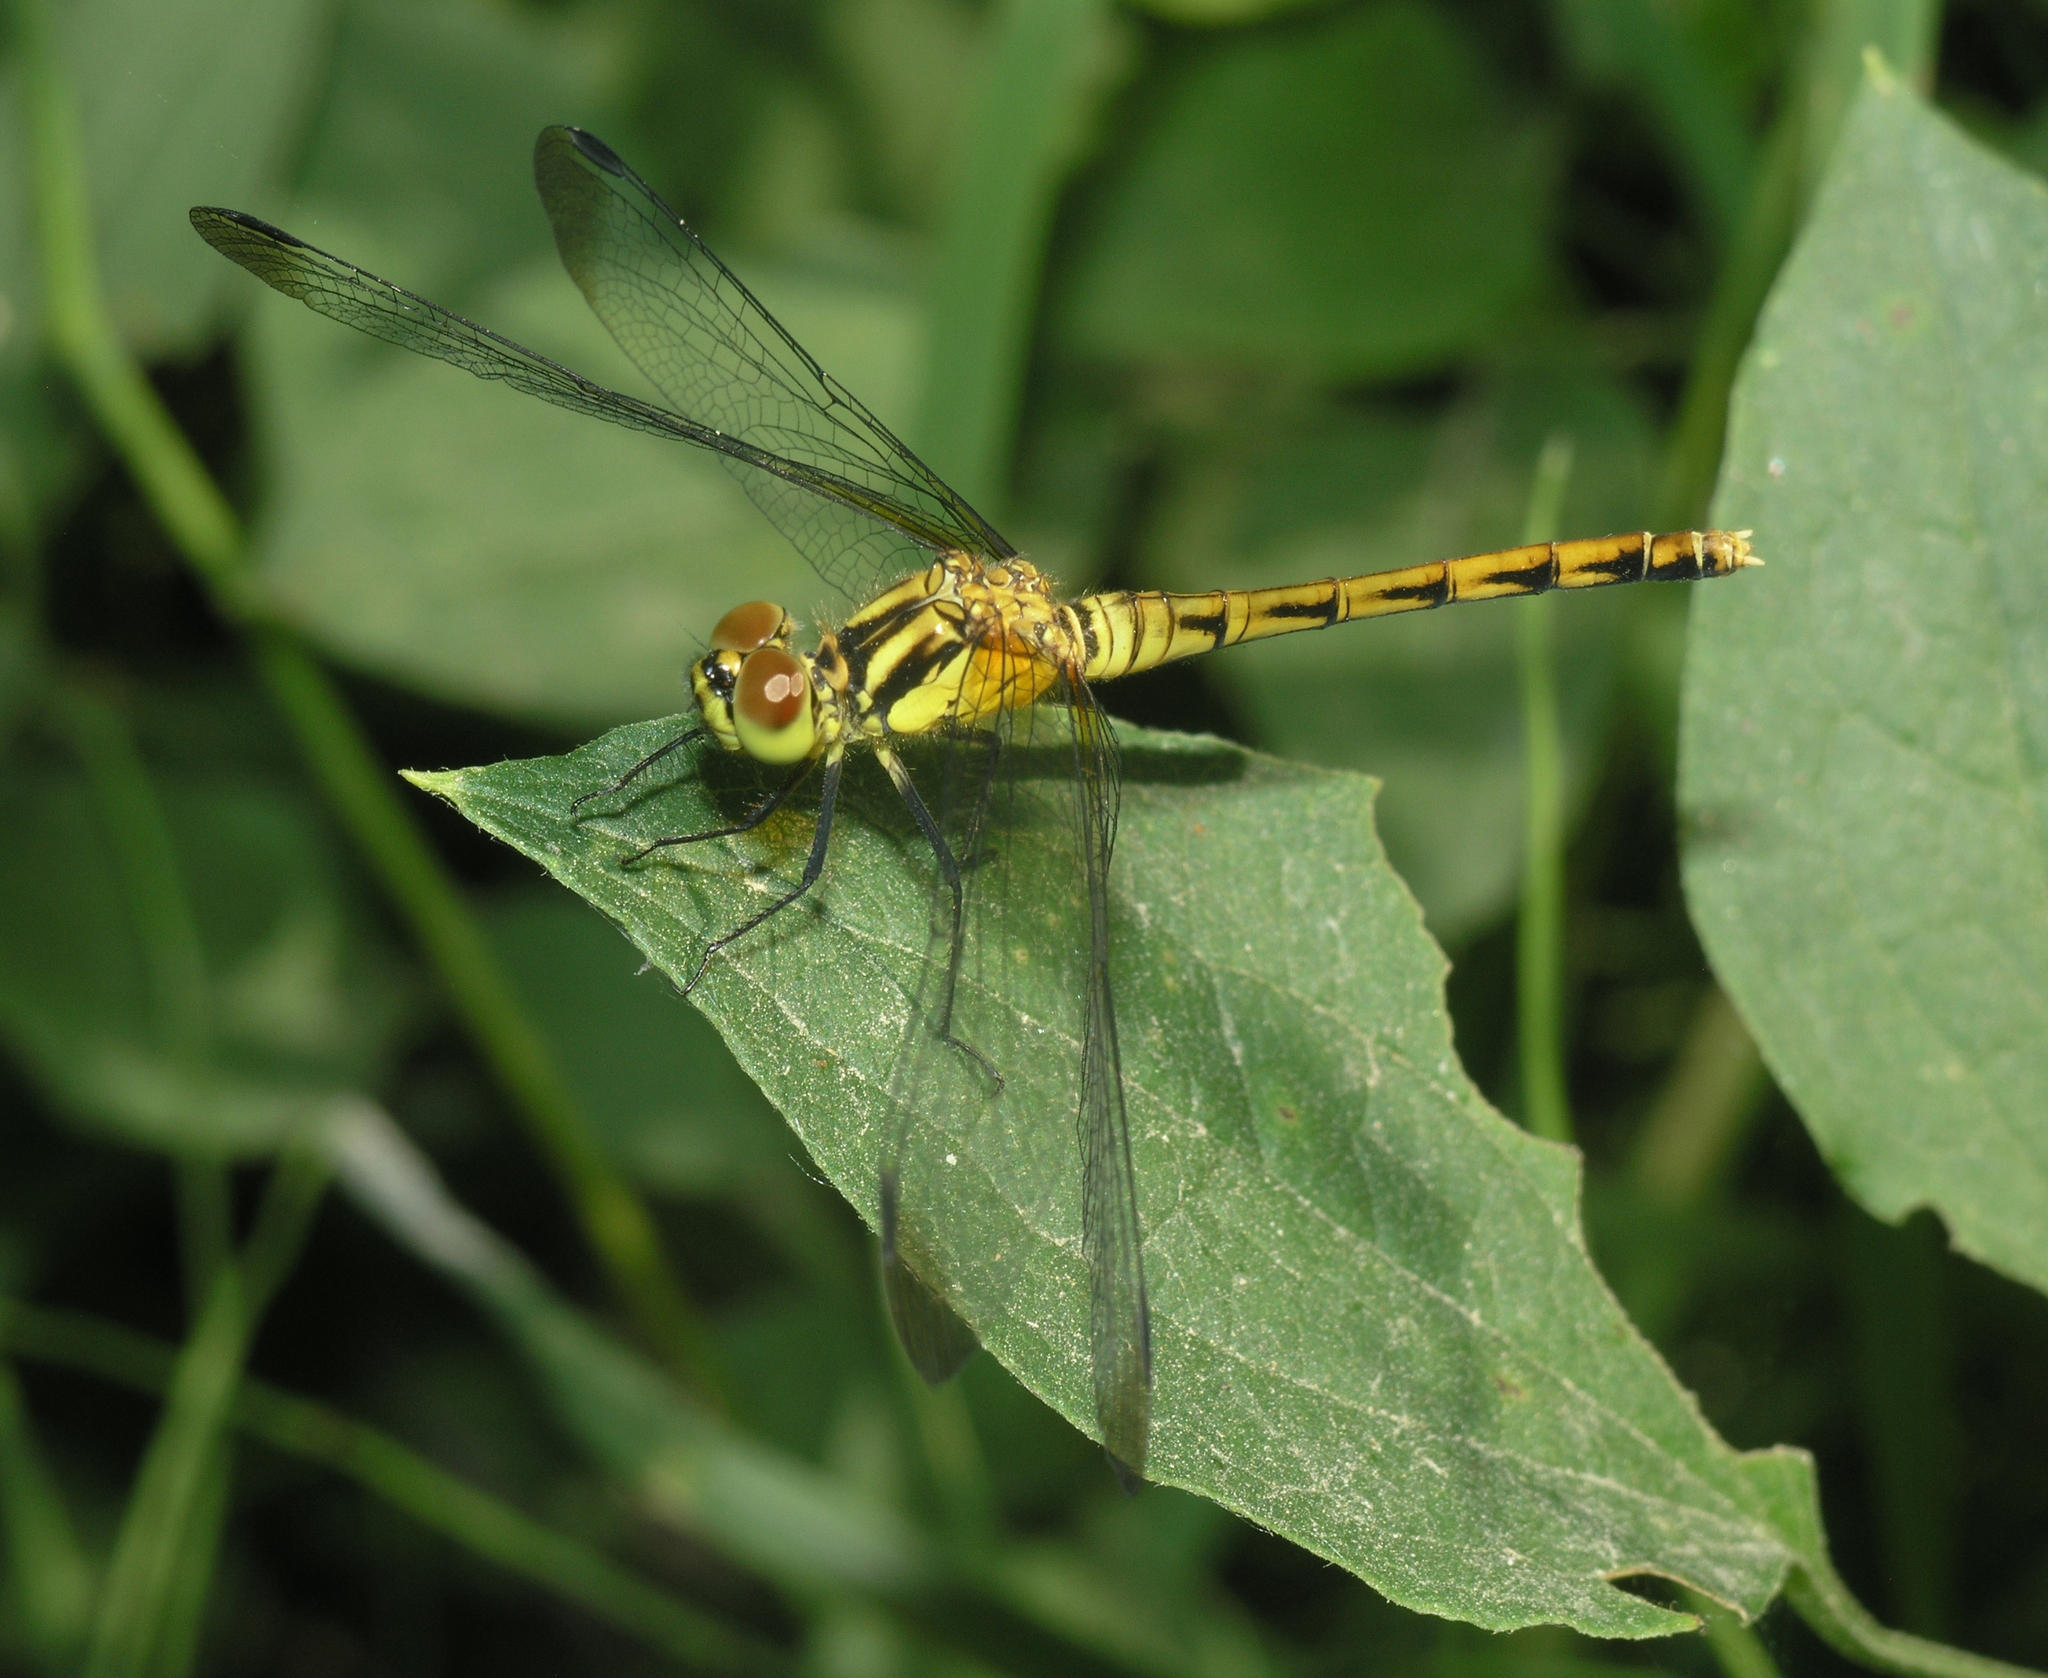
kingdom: Animalia
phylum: Arthropoda
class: Insecta
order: Odonata
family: Libellulidae
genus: Sympetrum
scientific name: Sympetrum eroticum
